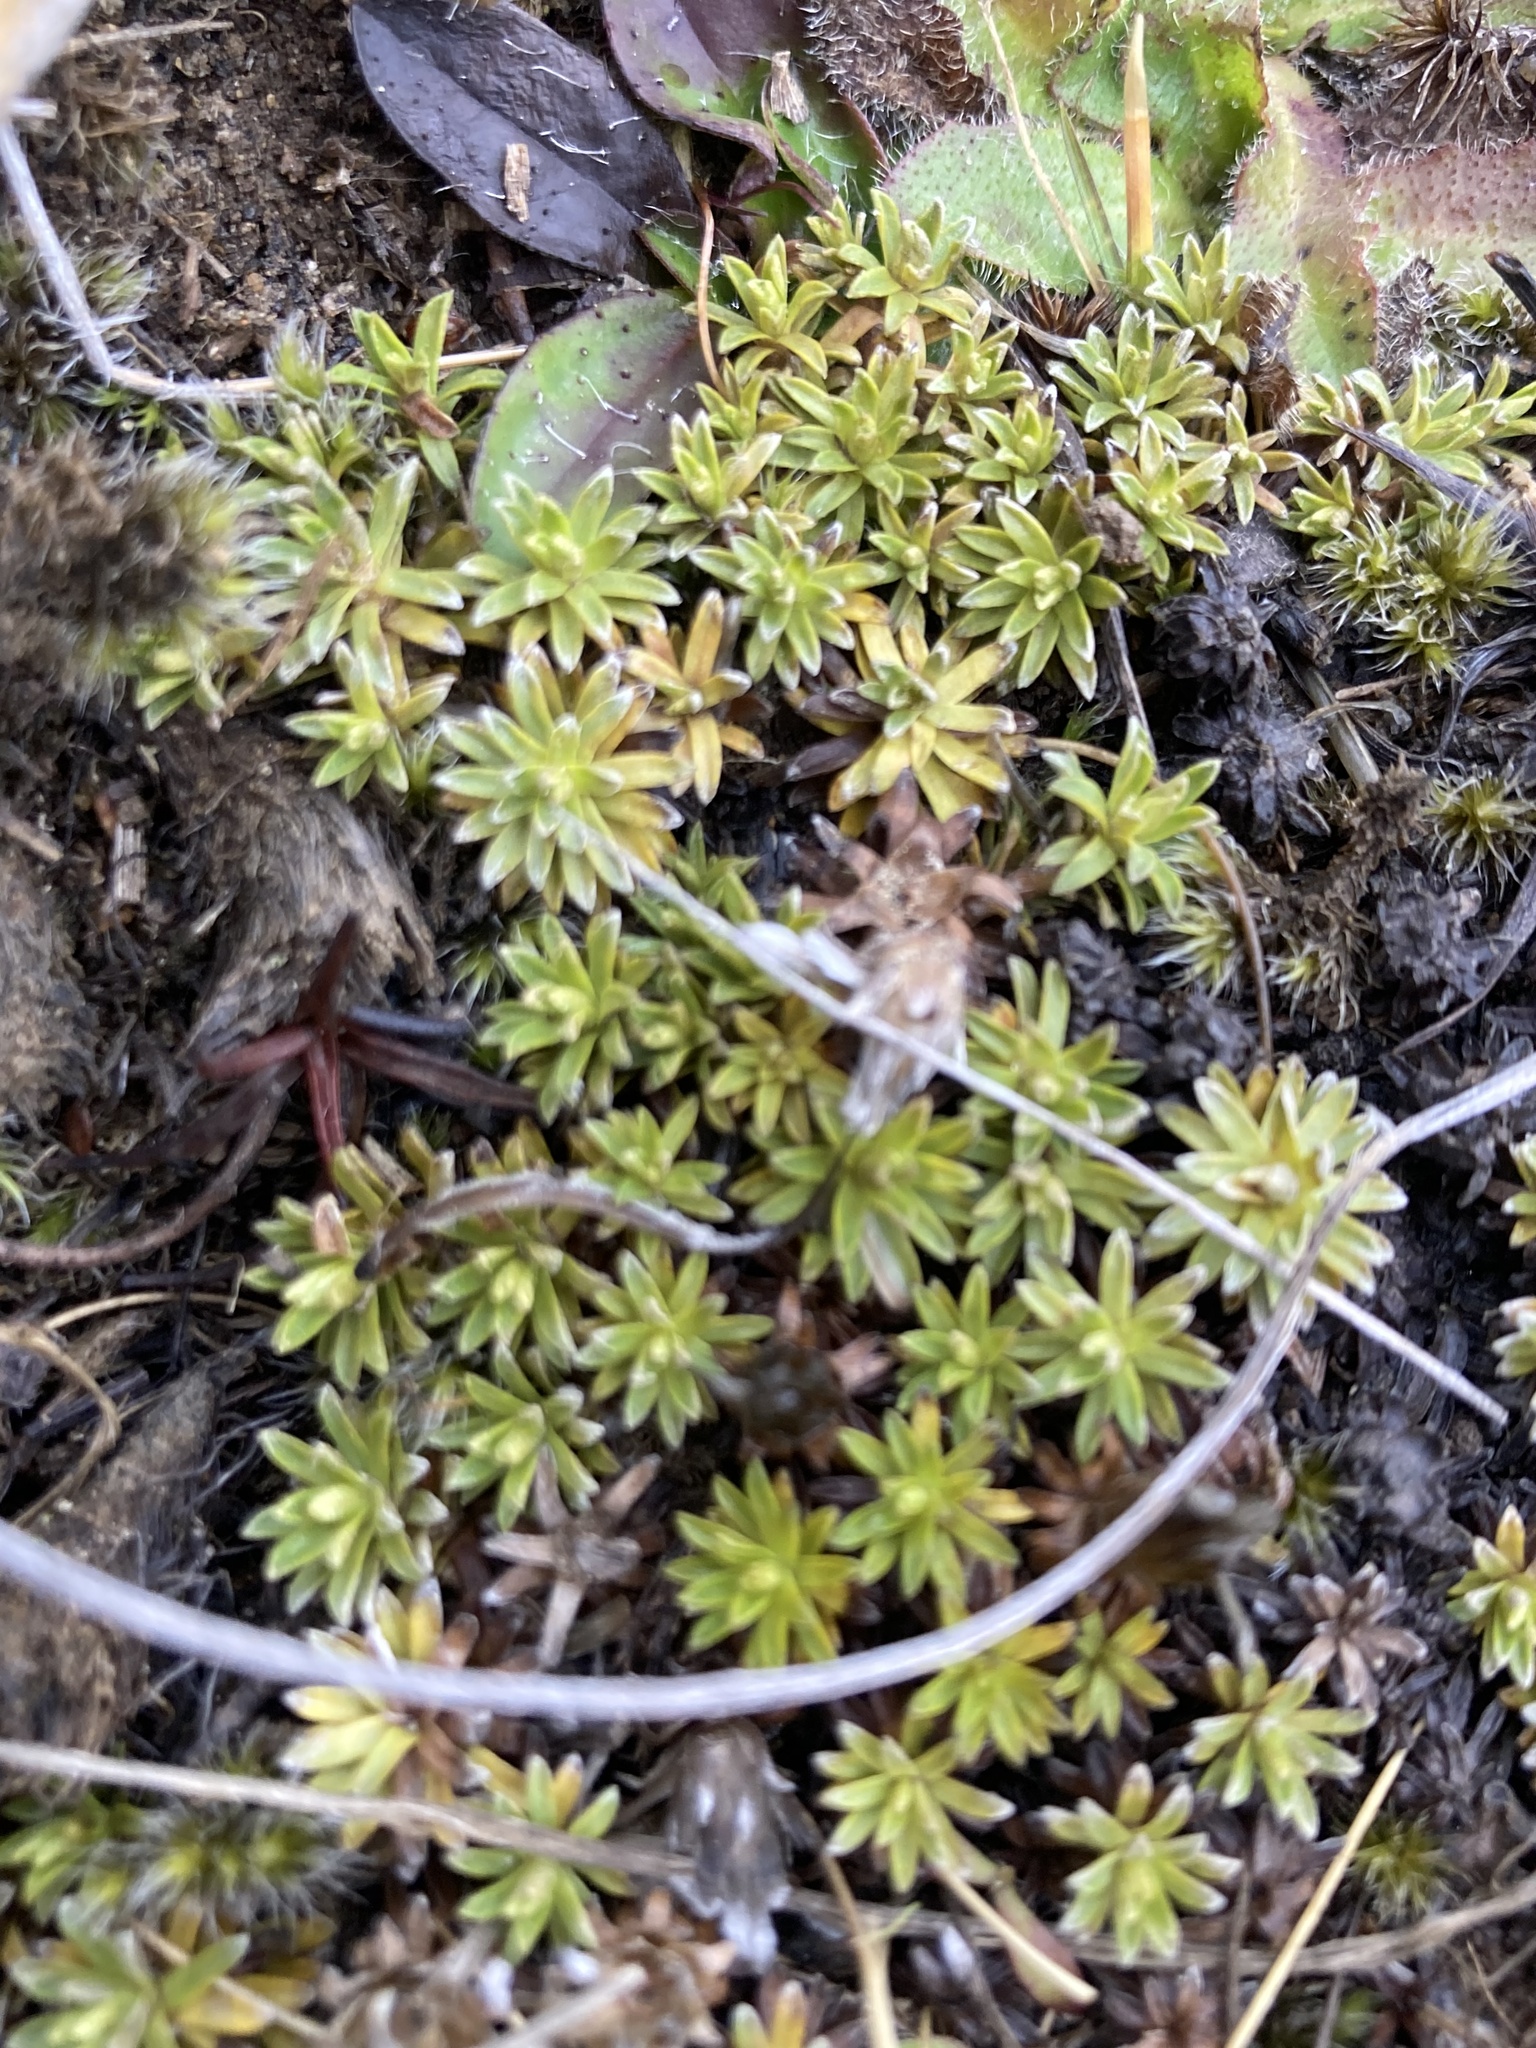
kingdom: Plantae
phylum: Tracheophyta
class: Magnoliopsida
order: Asterales
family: Asteraceae
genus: Raoulia
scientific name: Raoulia subsericea
